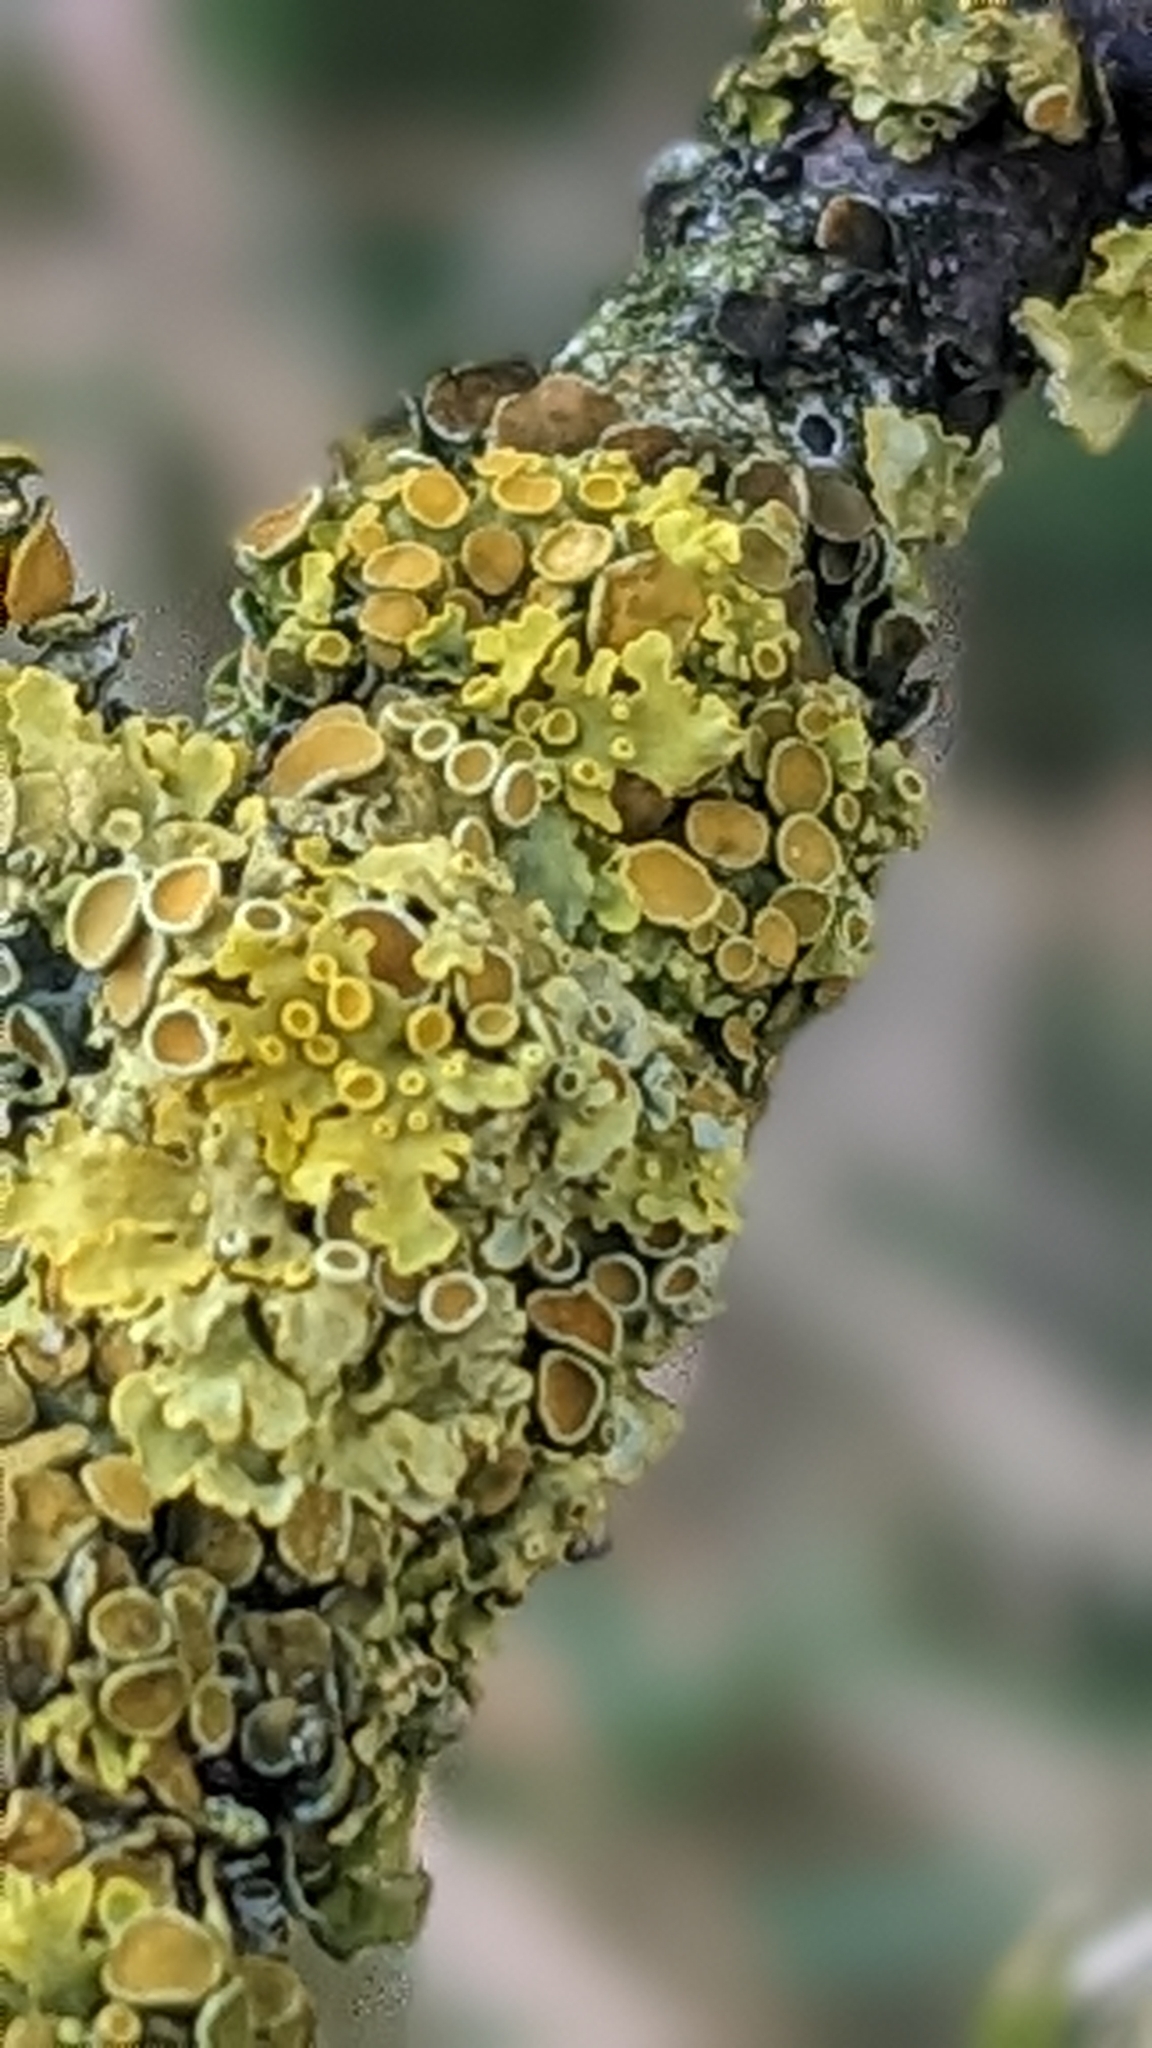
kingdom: Fungi
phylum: Ascomycota
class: Lecanoromycetes
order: Teloschistales
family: Teloschistaceae
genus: Xanthoria
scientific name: Xanthoria parietina
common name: Common orange lichen
